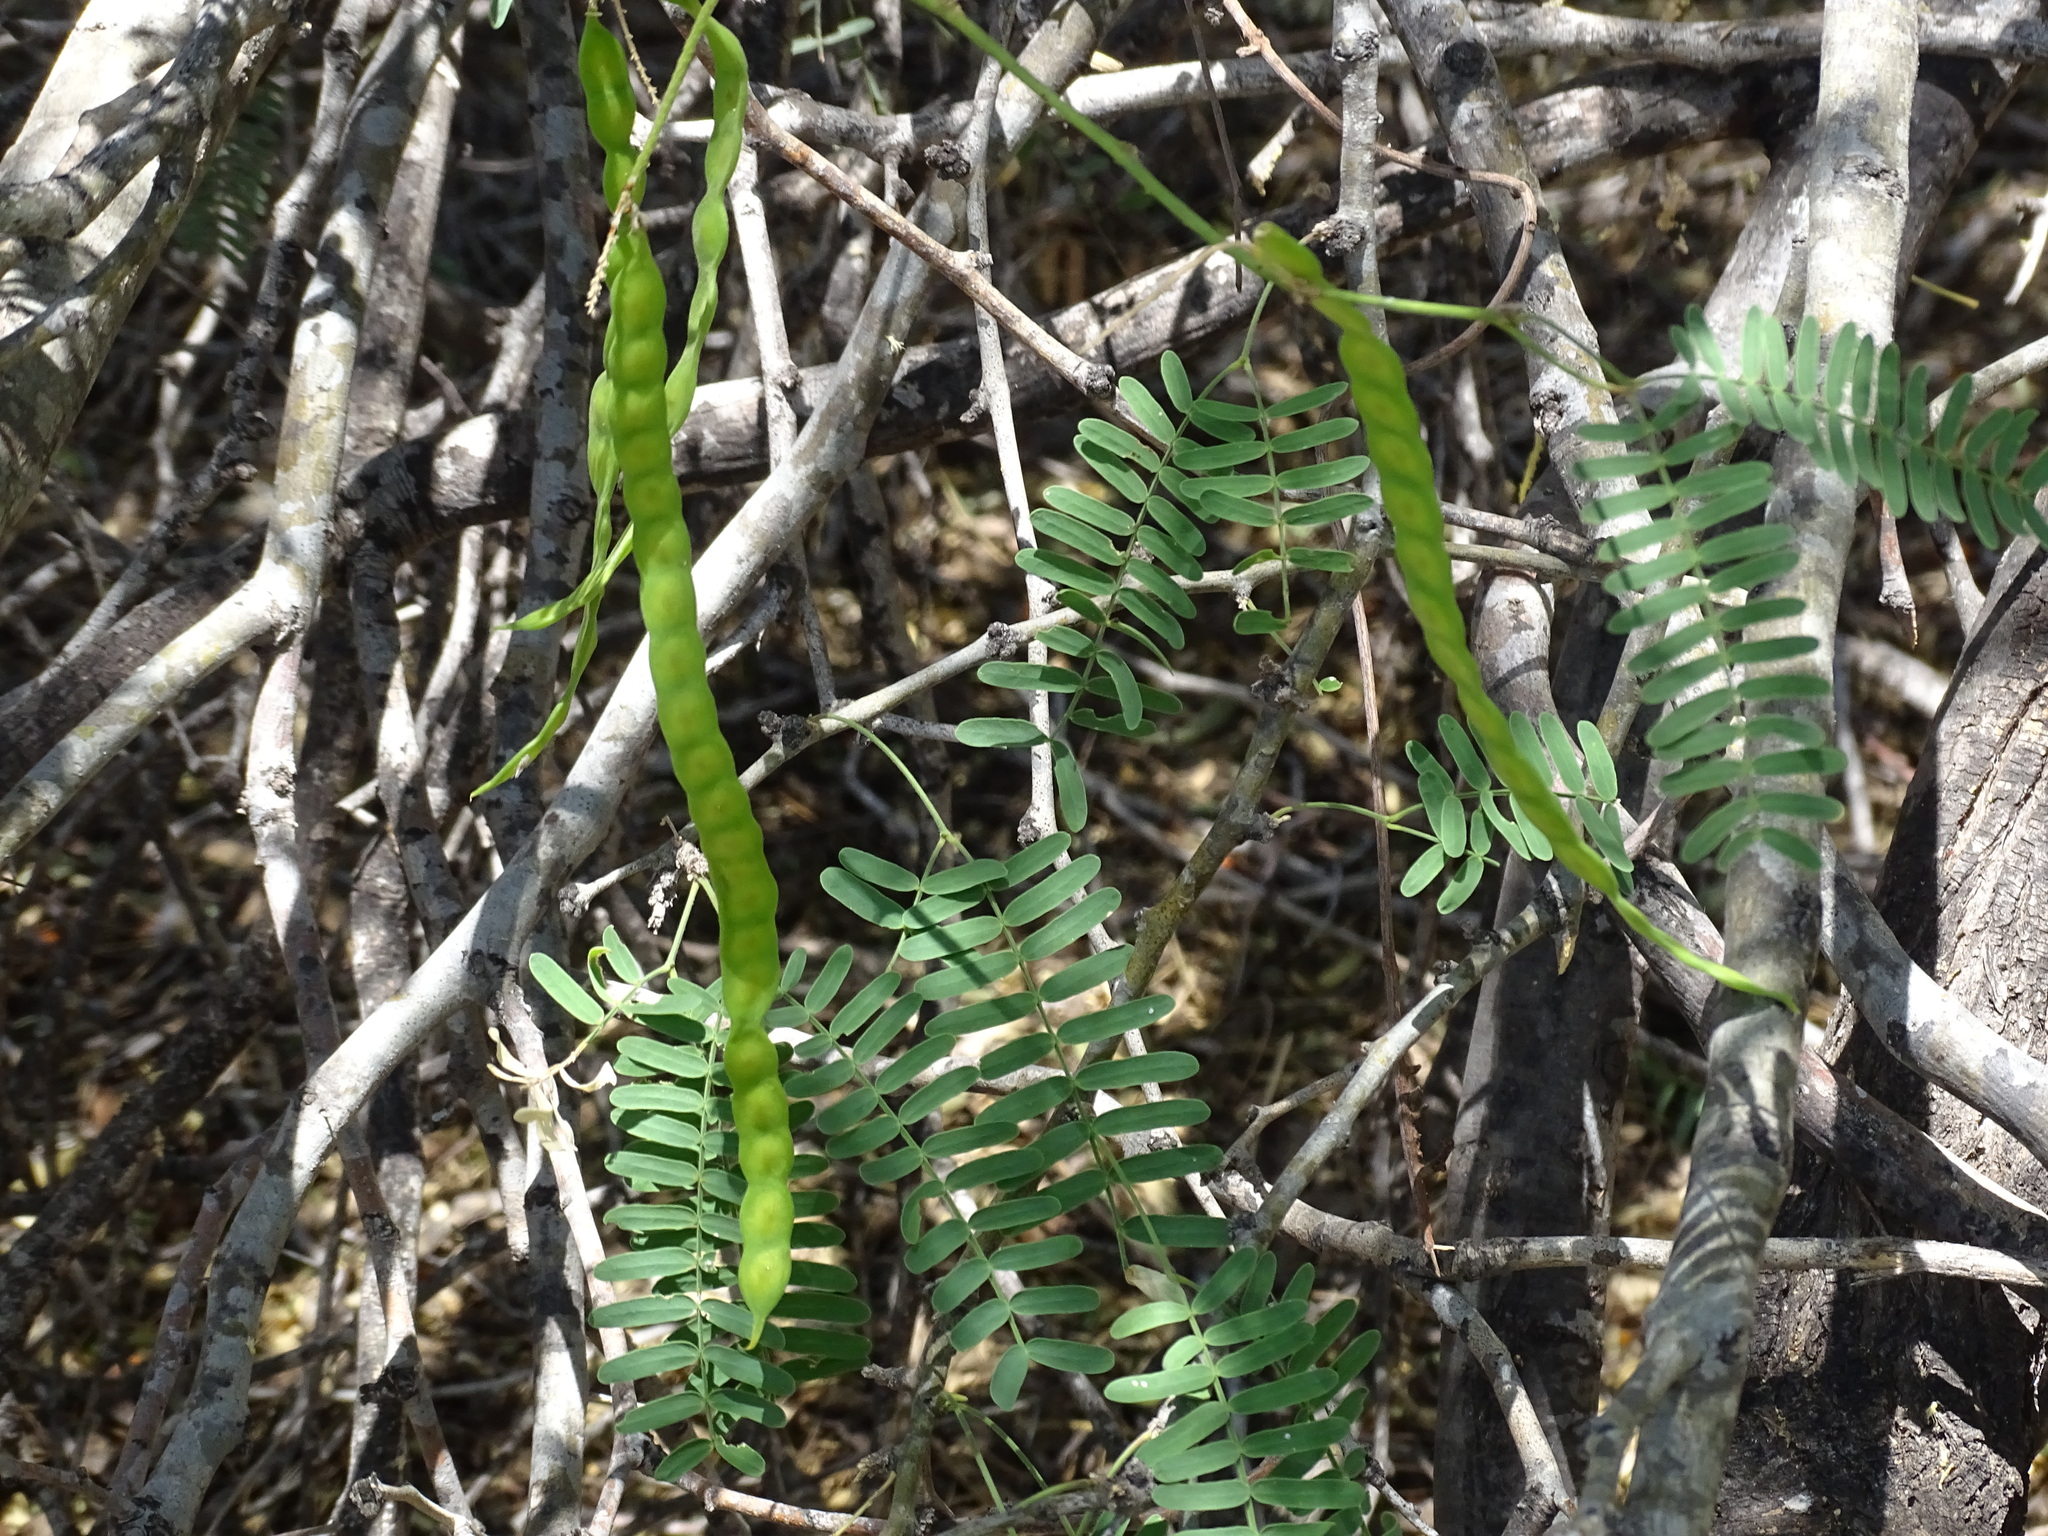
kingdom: Plantae
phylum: Tracheophyta
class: Magnoliopsida
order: Fabales
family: Fabaceae
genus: Prosopis
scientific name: Prosopis yaquiana
